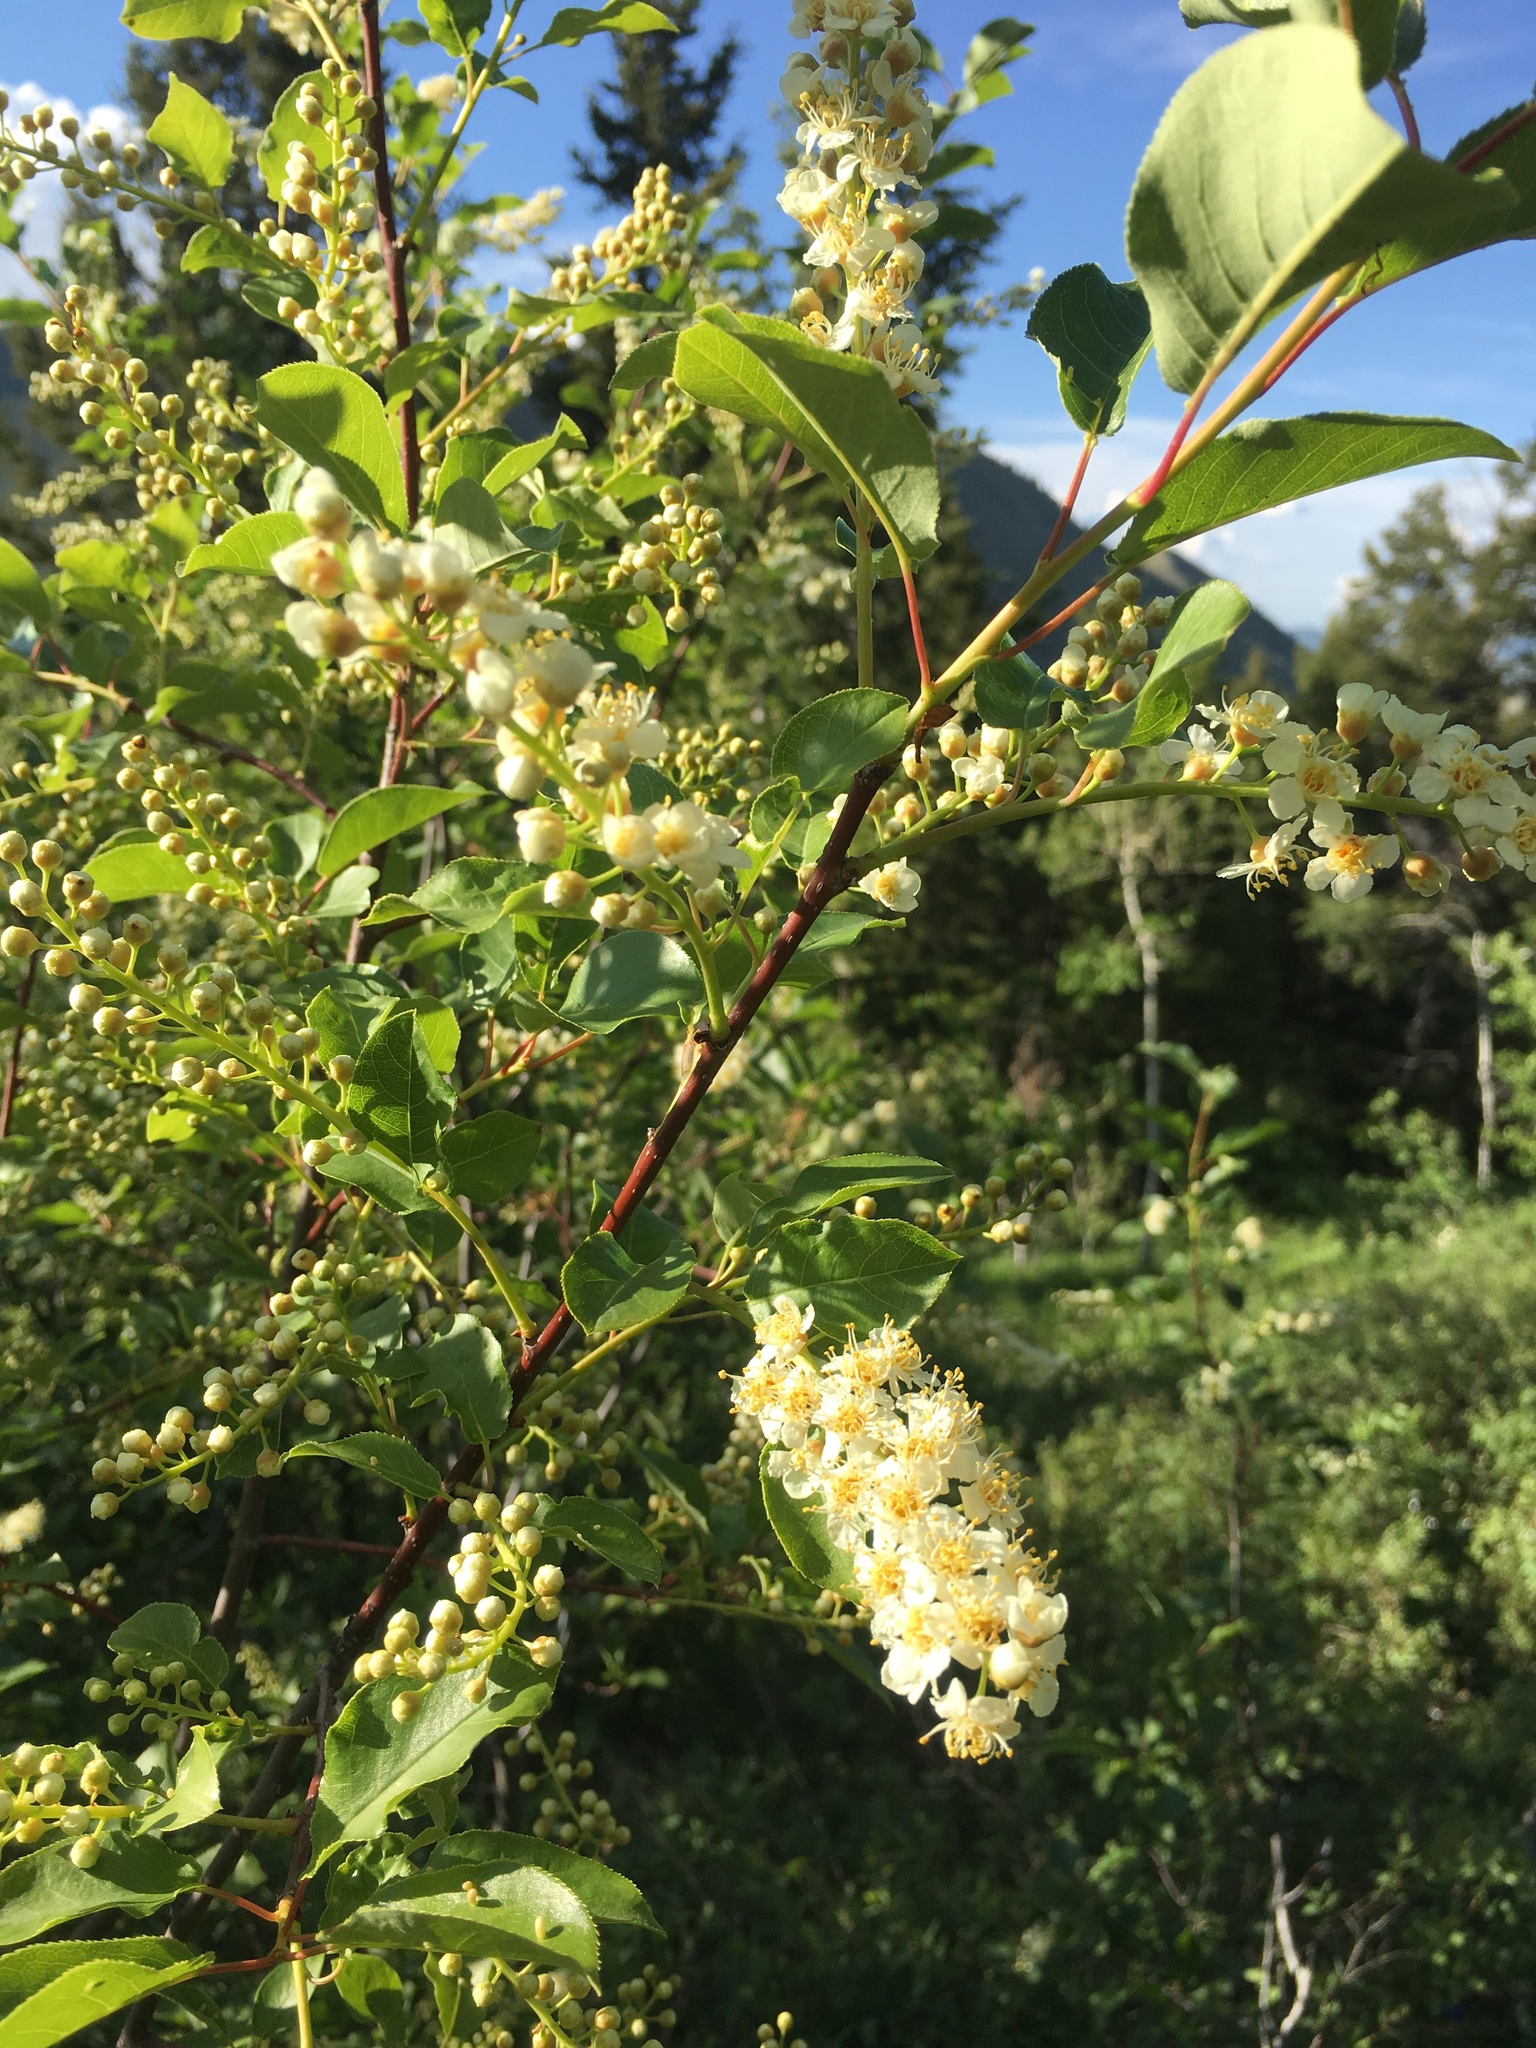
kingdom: Plantae
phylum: Tracheophyta
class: Magnoliopsida
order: Rosales
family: Rosaceae
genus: Prunus
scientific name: Prunus virginiana
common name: Chokecherry
